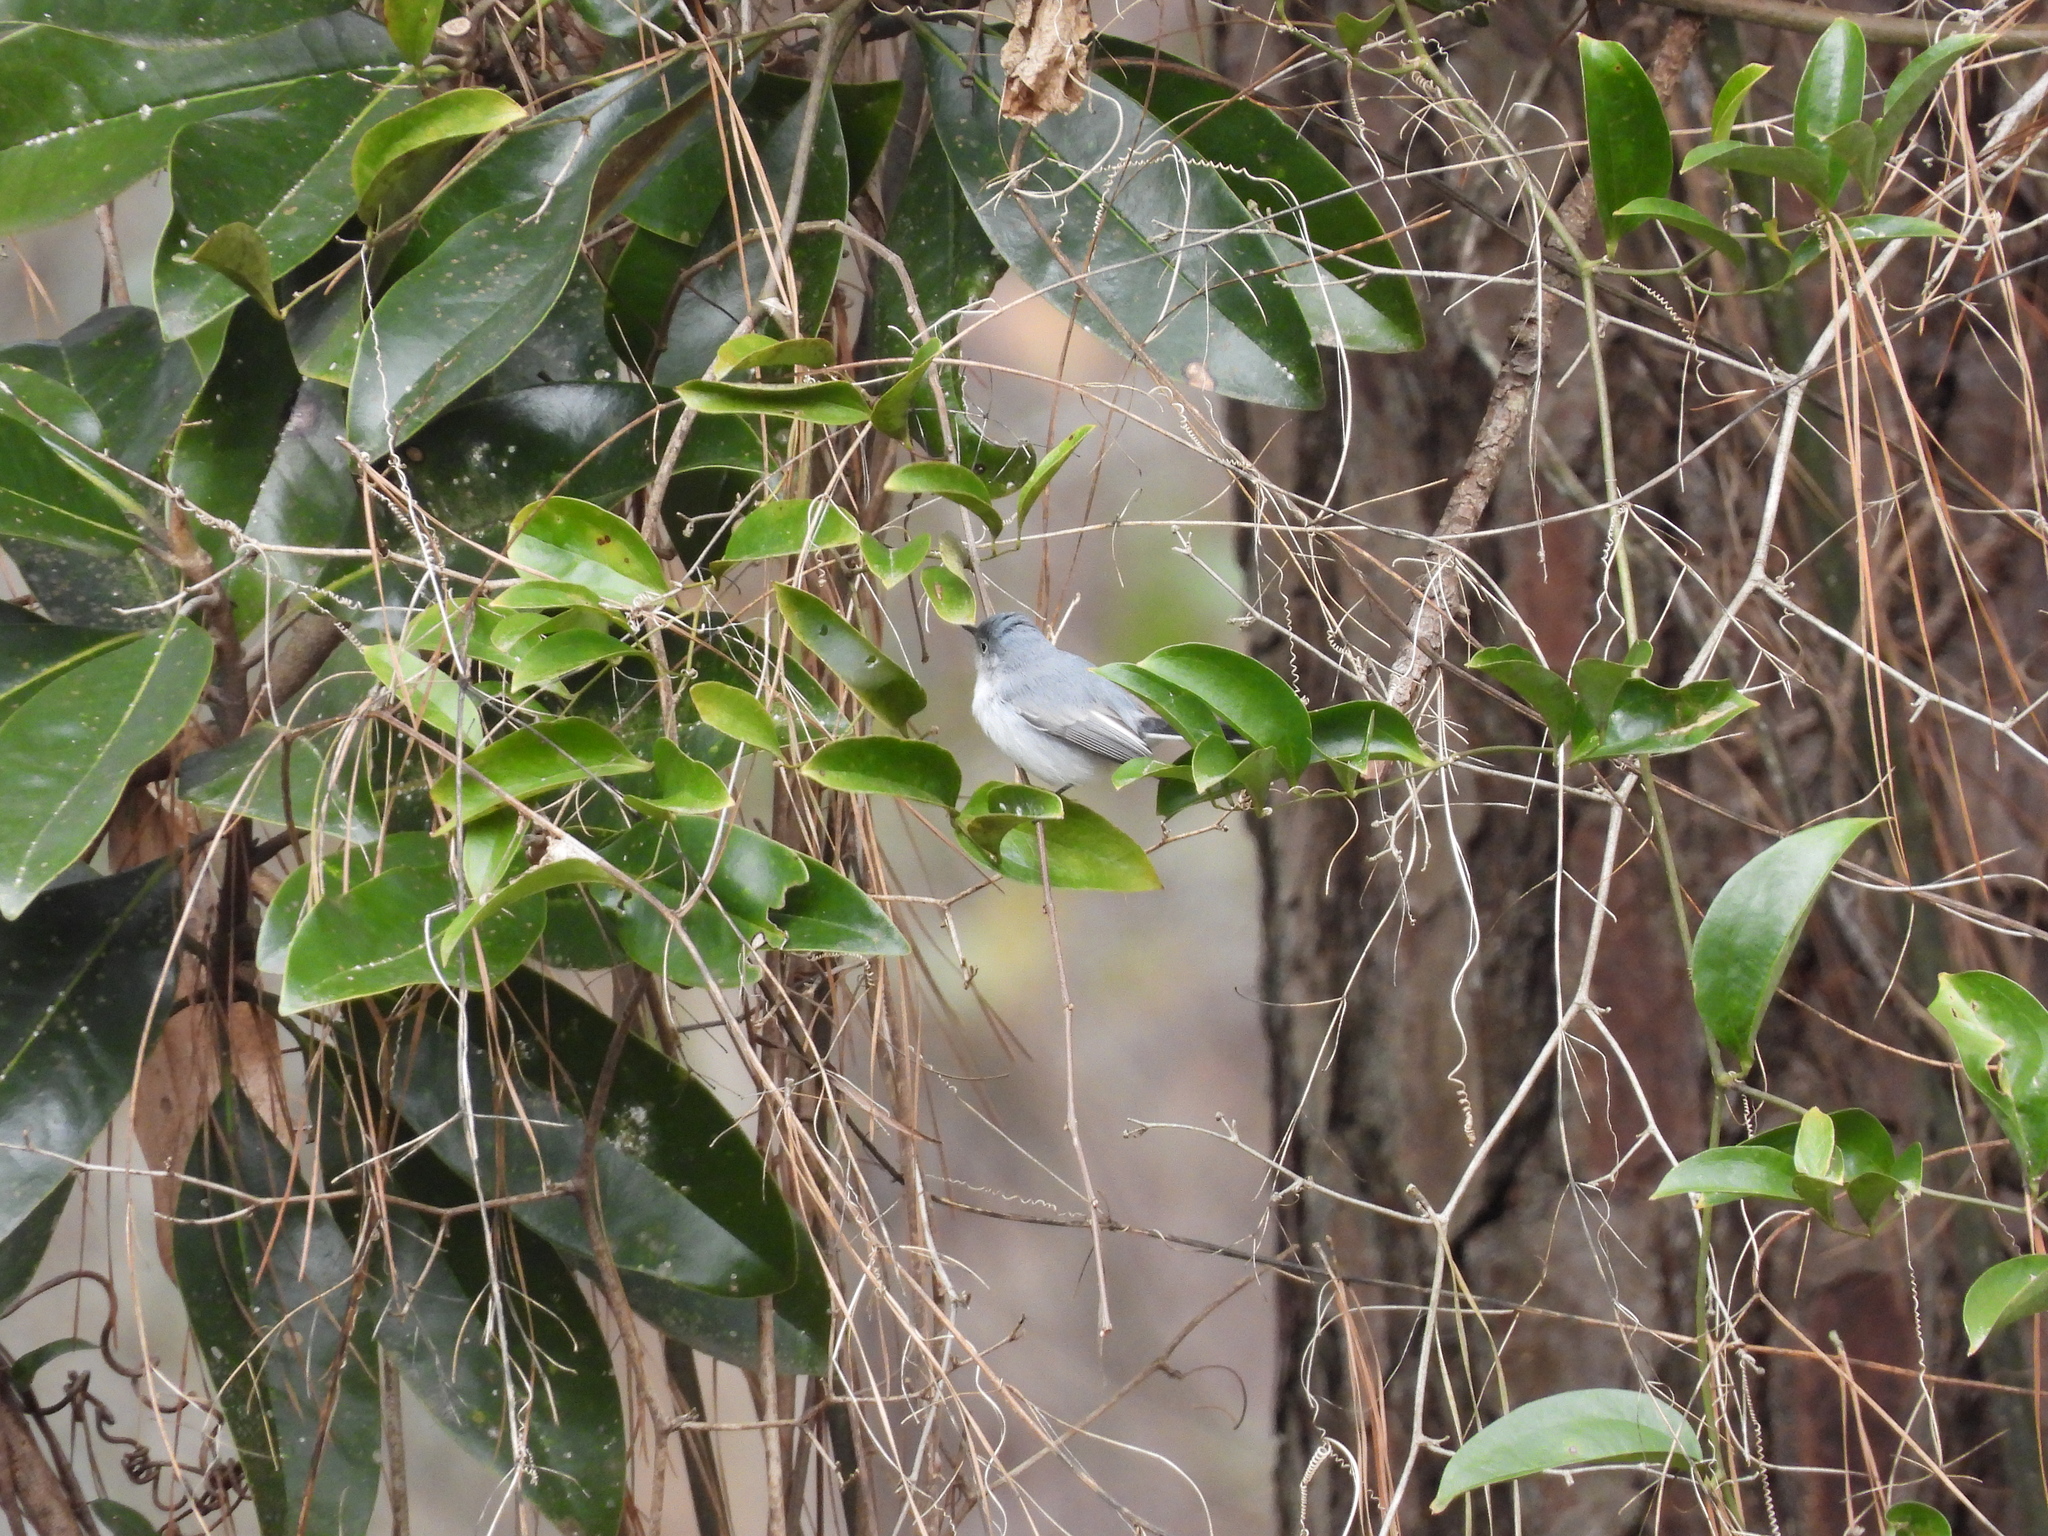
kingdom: Animalia
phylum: Chordata
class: Aves
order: Passeriformes
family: Polioptilidae
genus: Polioptila
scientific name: Polioptila caerulea
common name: Blue-gray gnatcatcher
